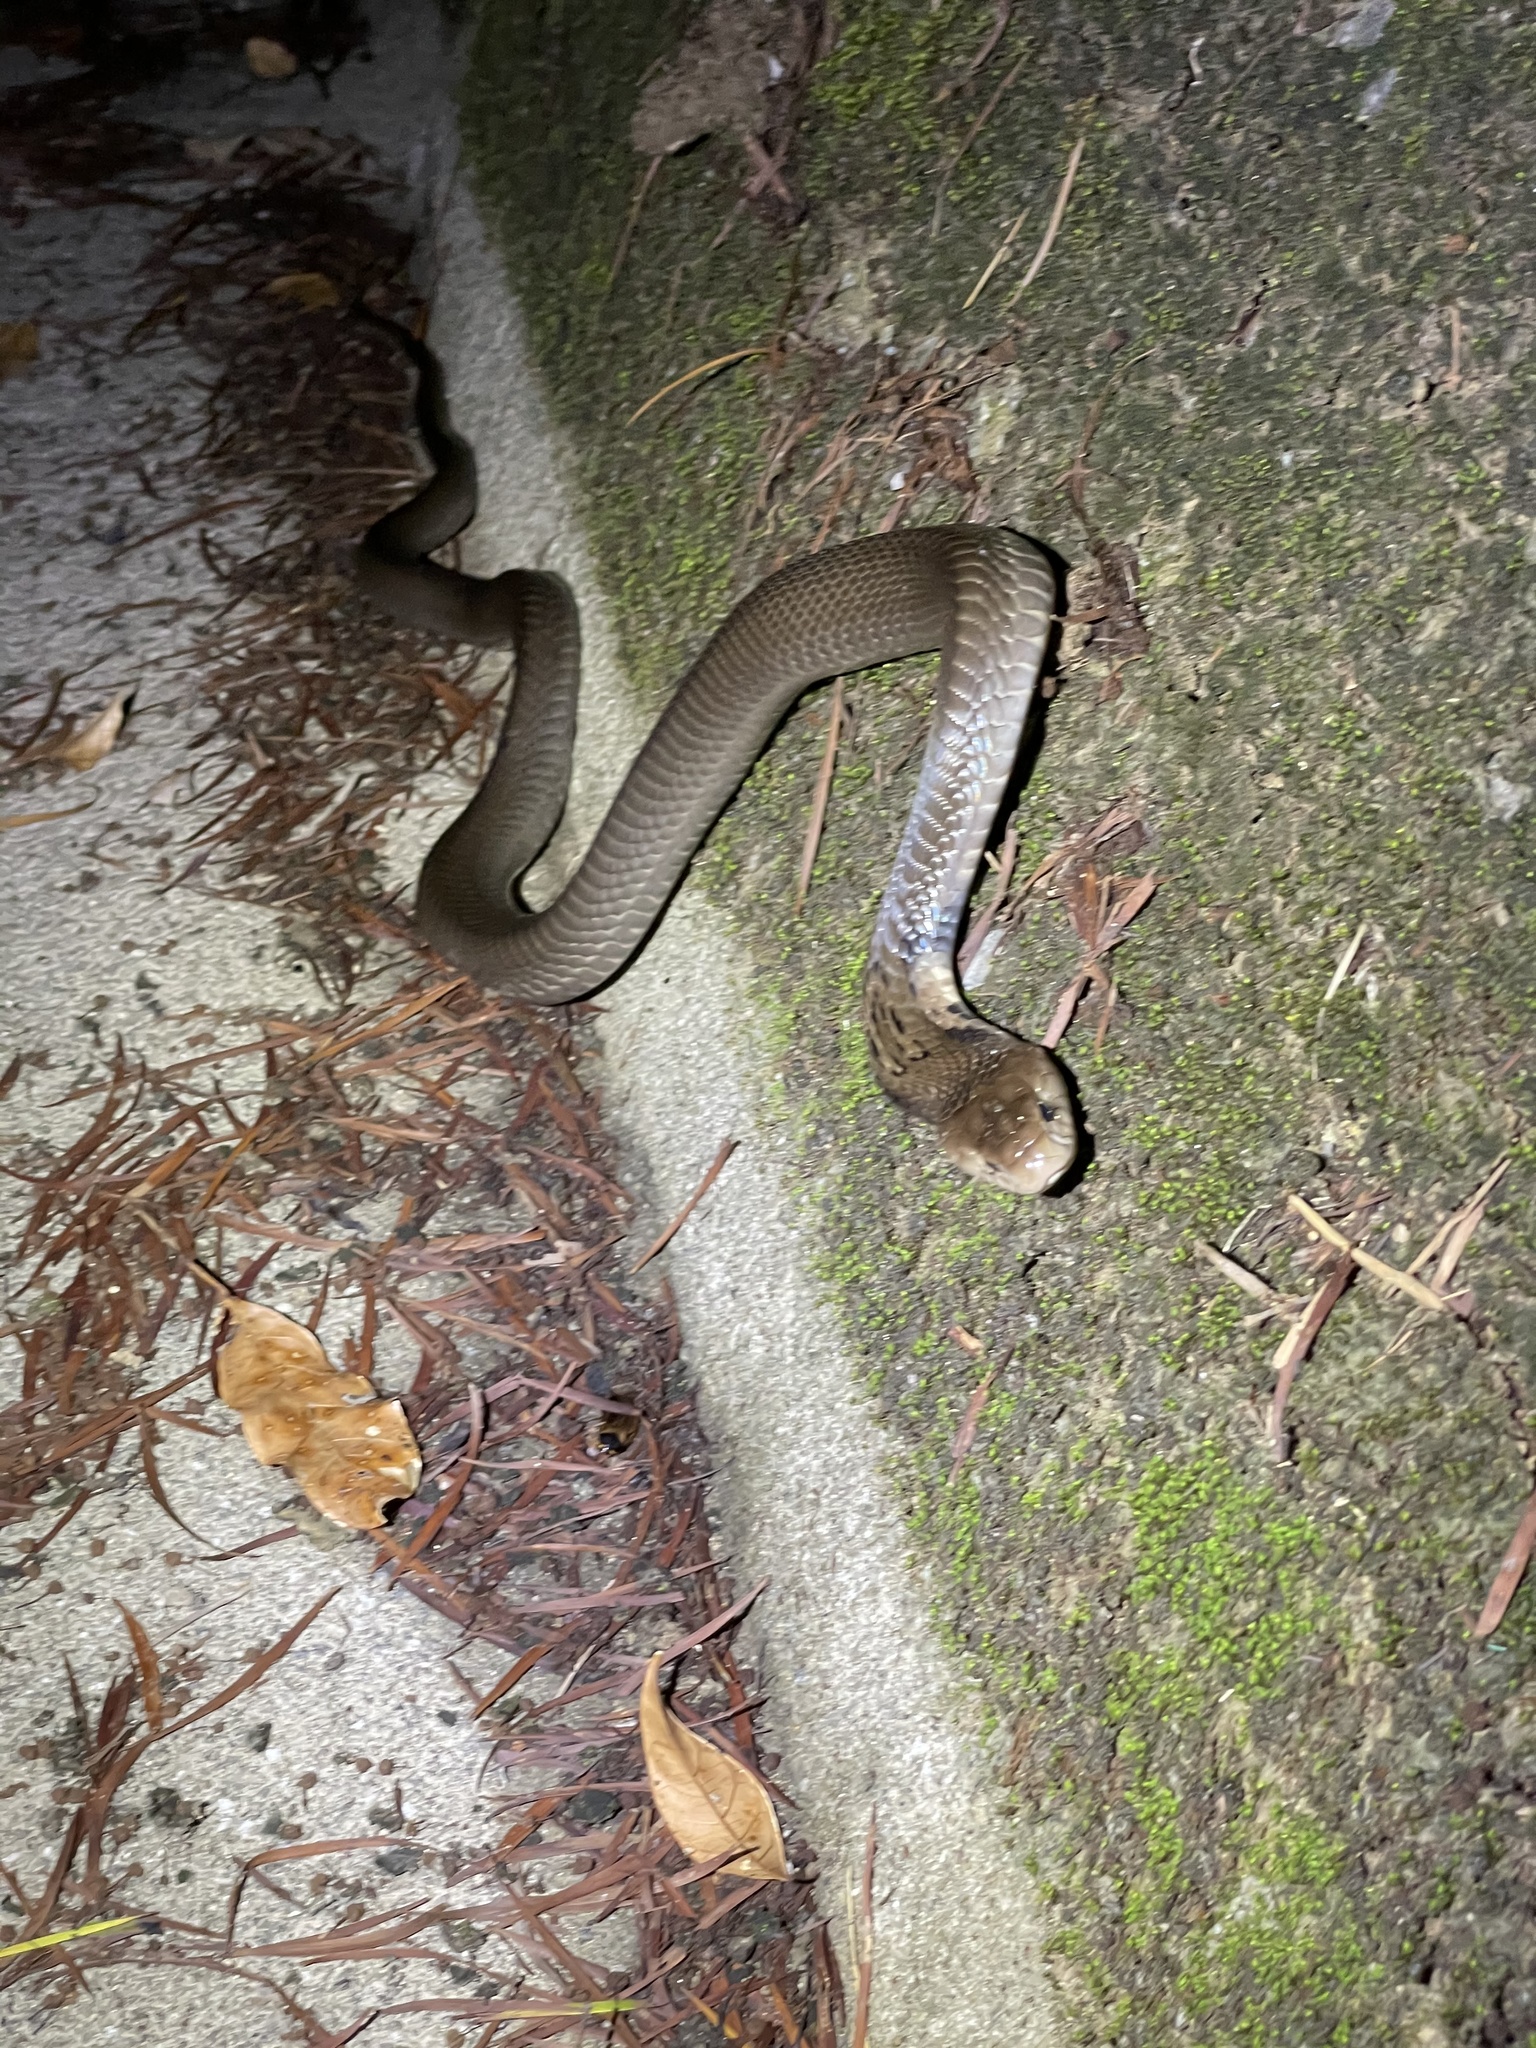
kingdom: Animalia
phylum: Chordata
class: Squamata
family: Elapidae
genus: Naja
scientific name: Naja atra
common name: Chinese cobra
